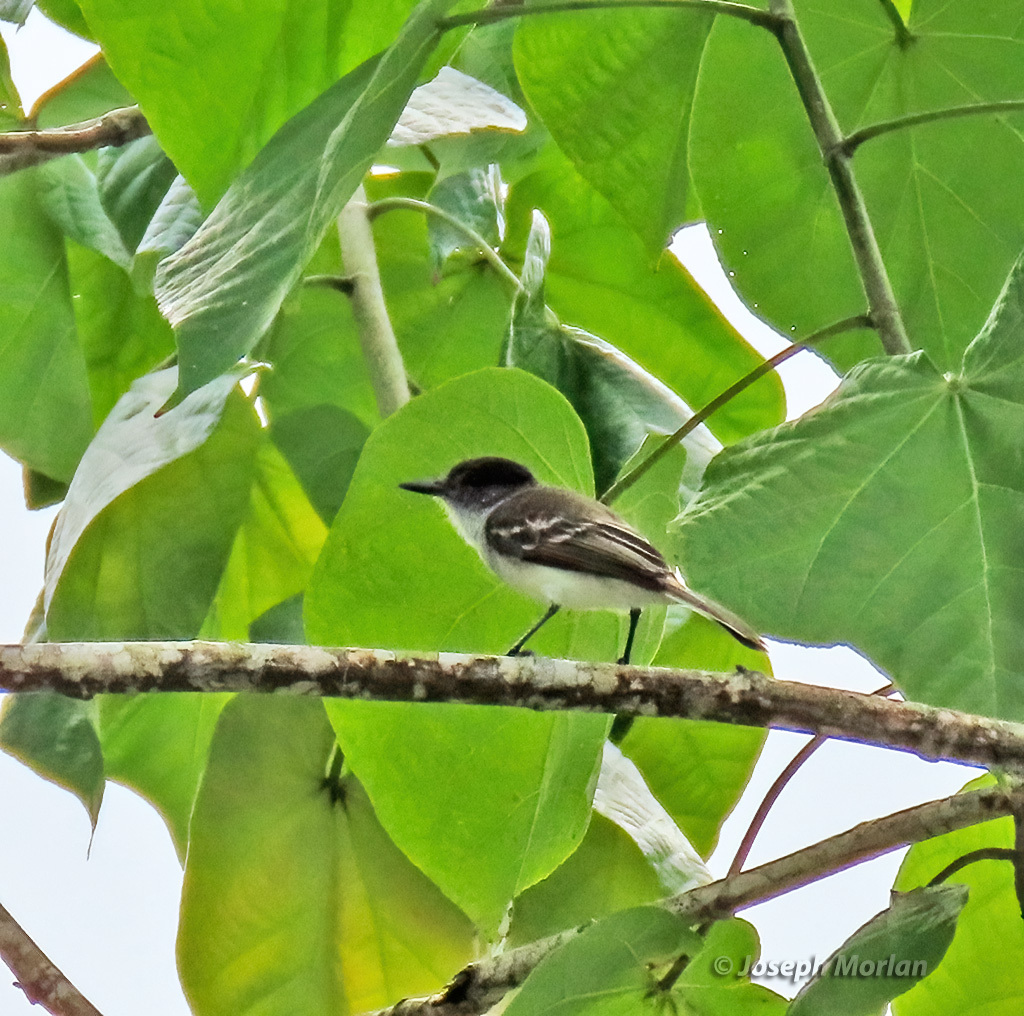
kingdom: Animalia
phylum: Chordata
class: Aves
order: Passeriformes
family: Tyrannidae
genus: Myiarchus
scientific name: Myiarchus antillarum
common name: Puerto rican flycatcher
